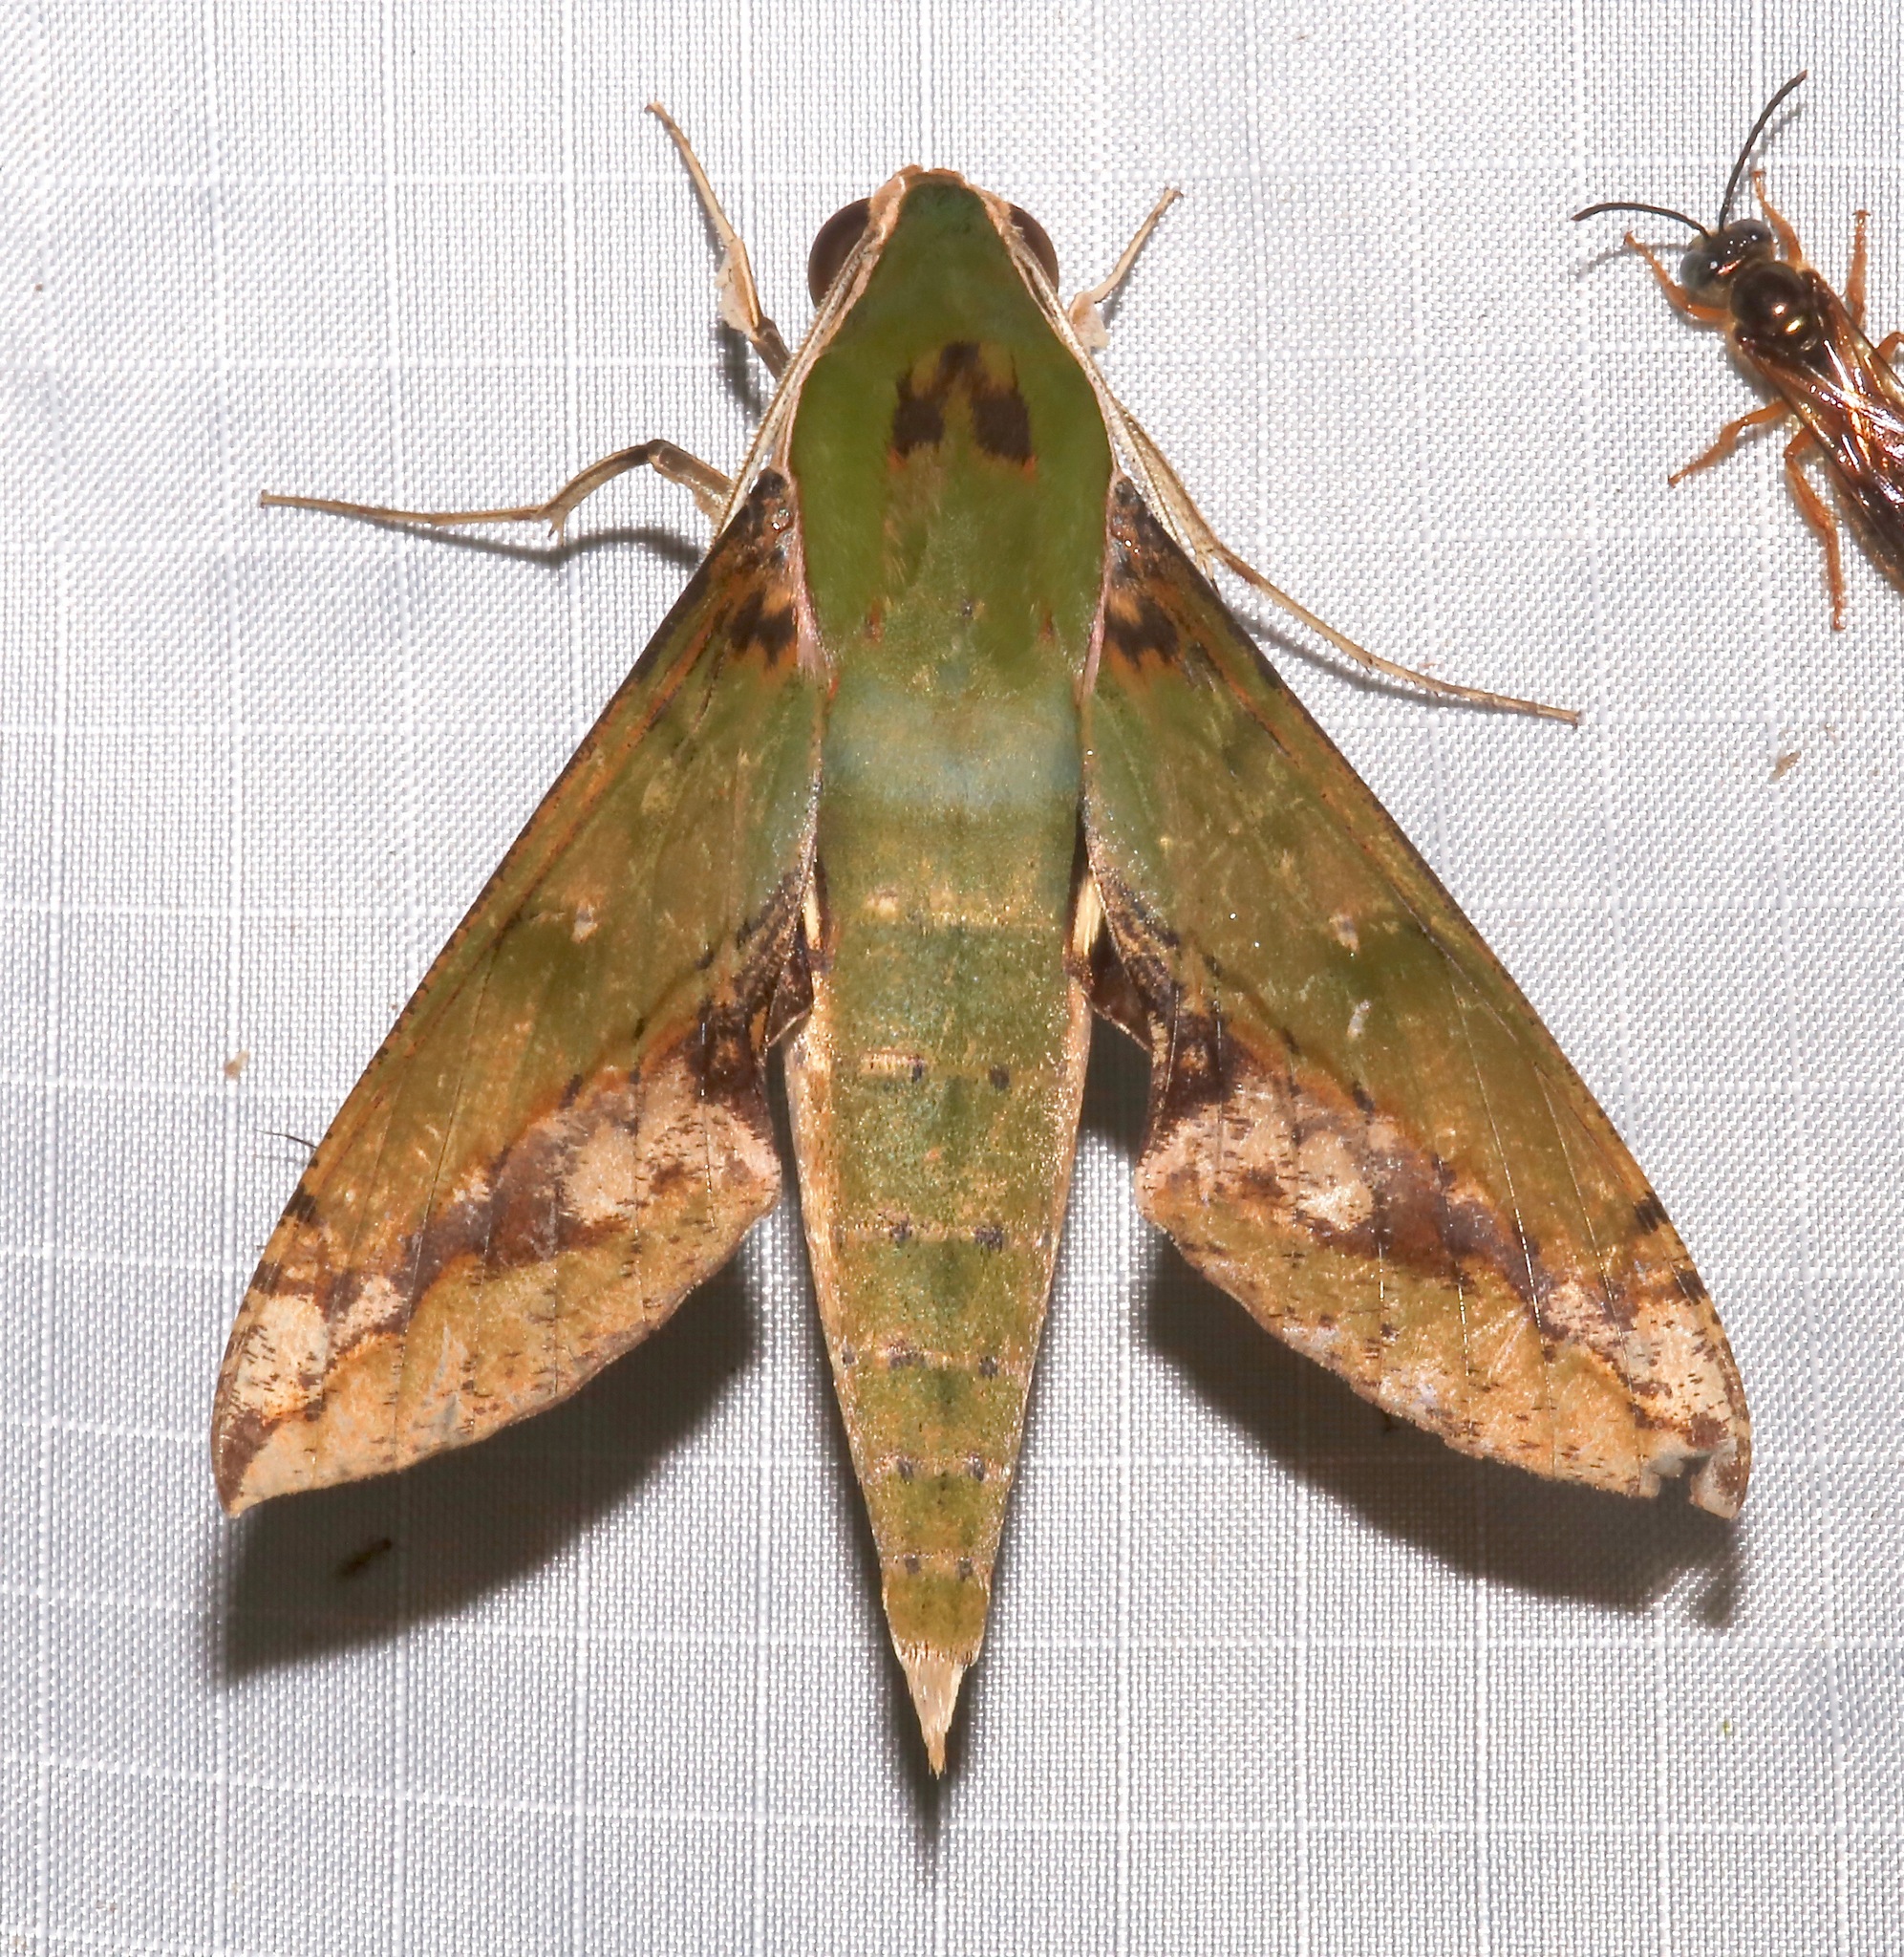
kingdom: Animalia
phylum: Arthropoda
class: Insecta
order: Lepidoptera
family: Sphingidae
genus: Xylophanes
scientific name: Xylophanes chiron
